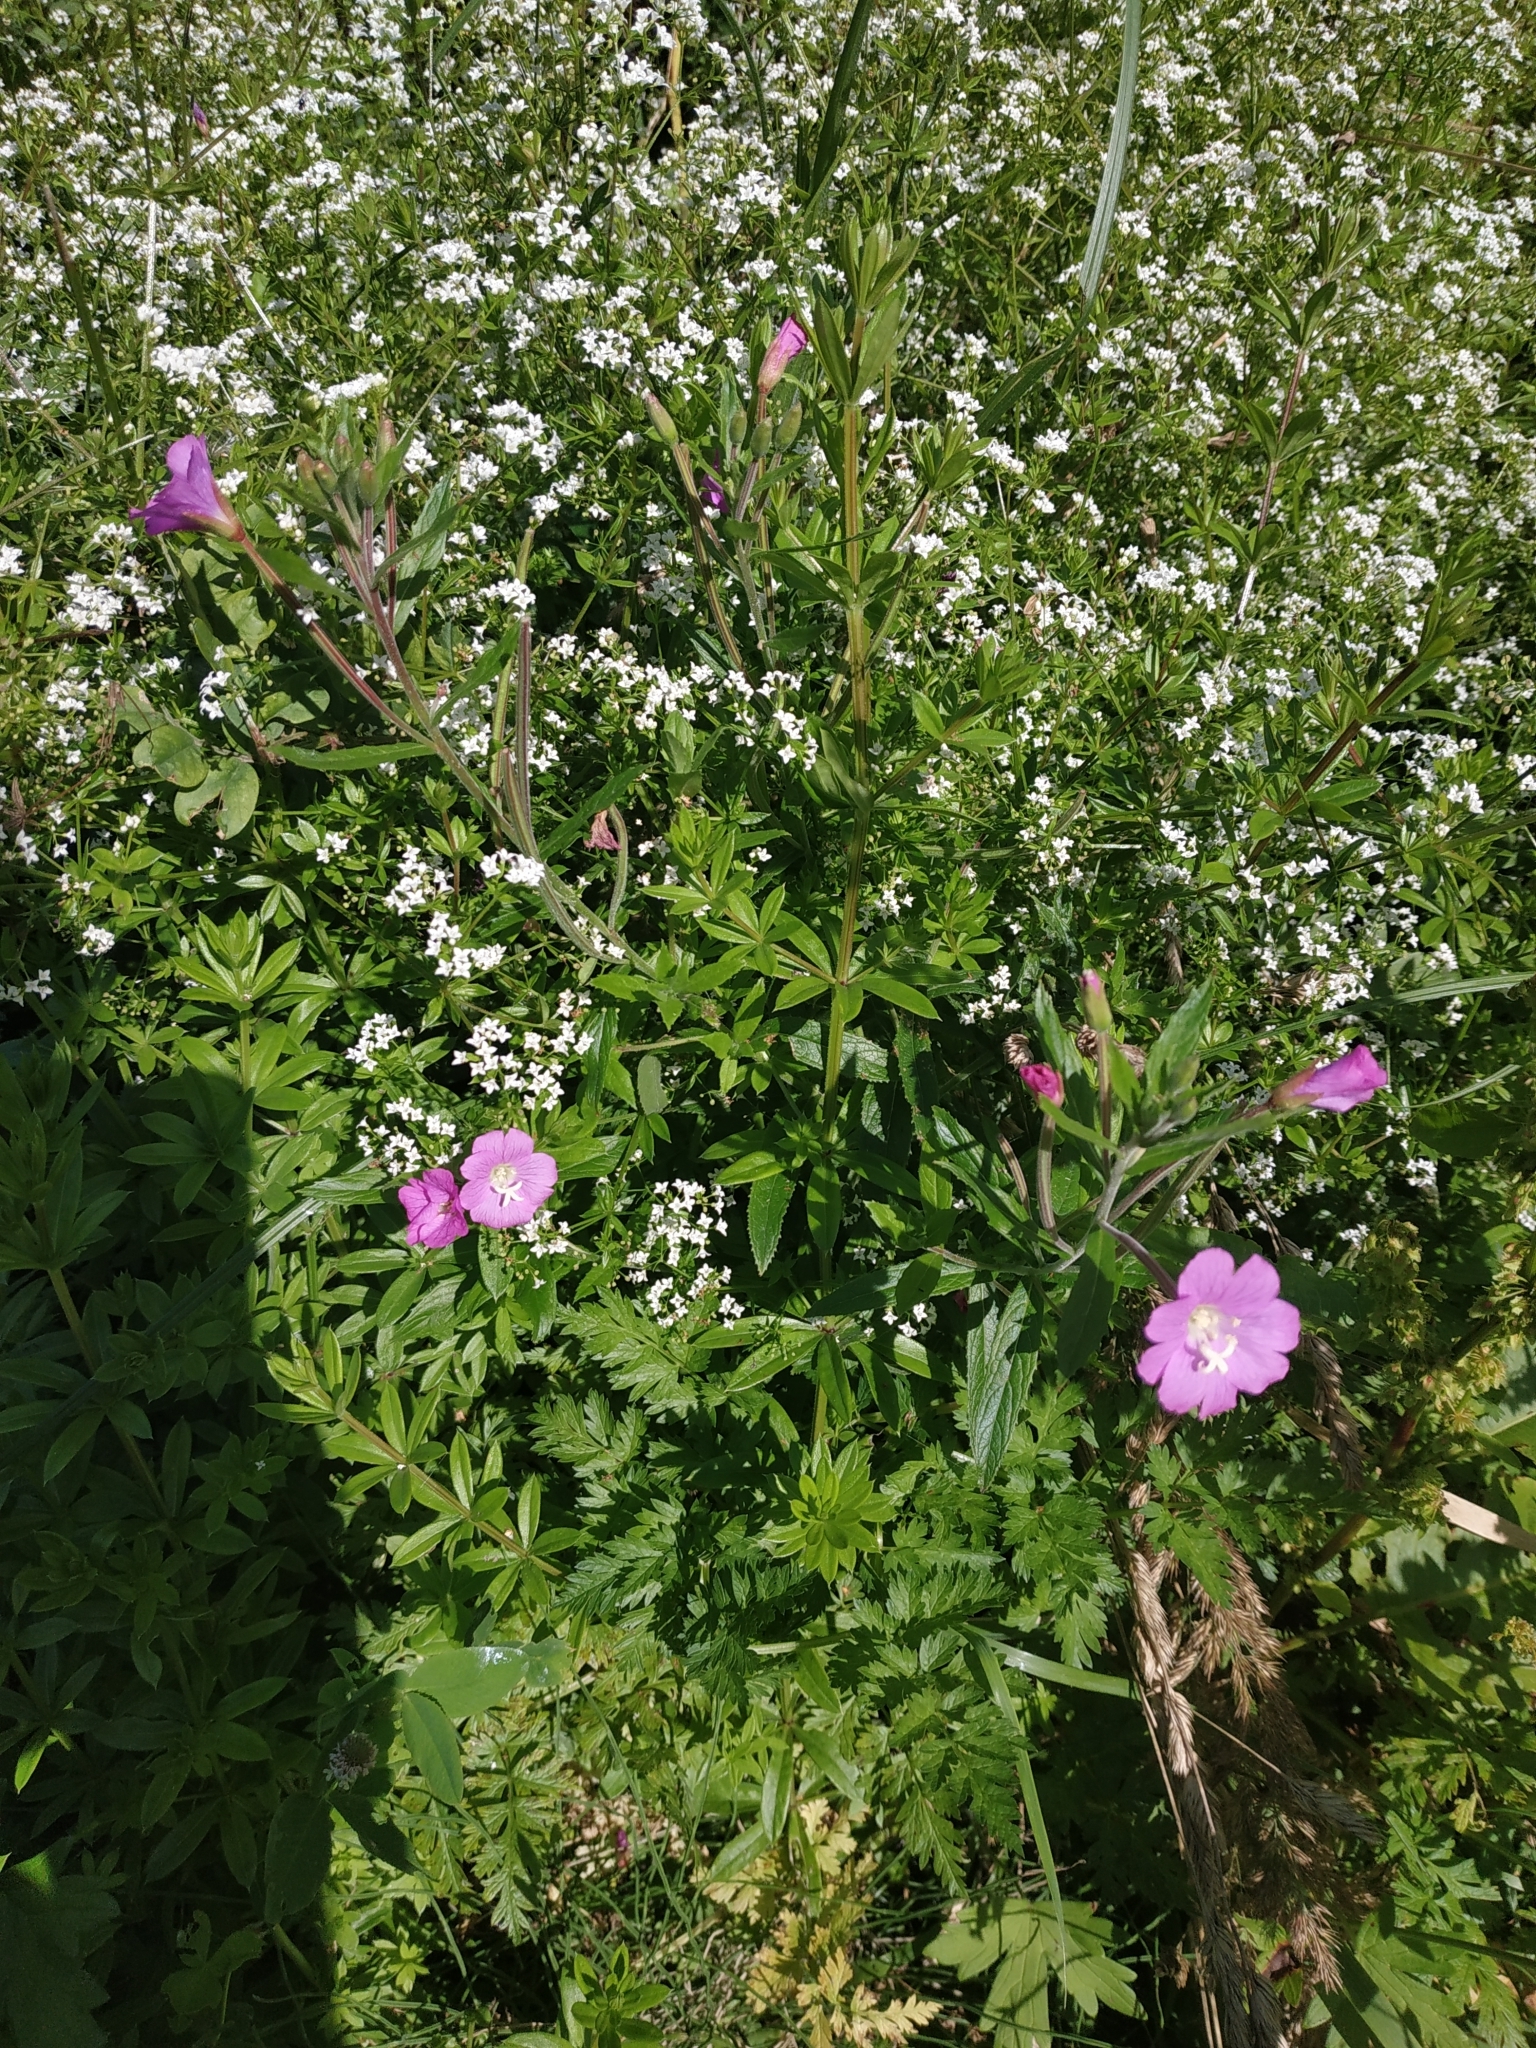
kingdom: Plantae
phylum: Tracheophyta
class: Magnoliopsida
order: Myrtales
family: Onagraceae
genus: Epilobium
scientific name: Epilobium hirsutum
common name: Great willowherb
